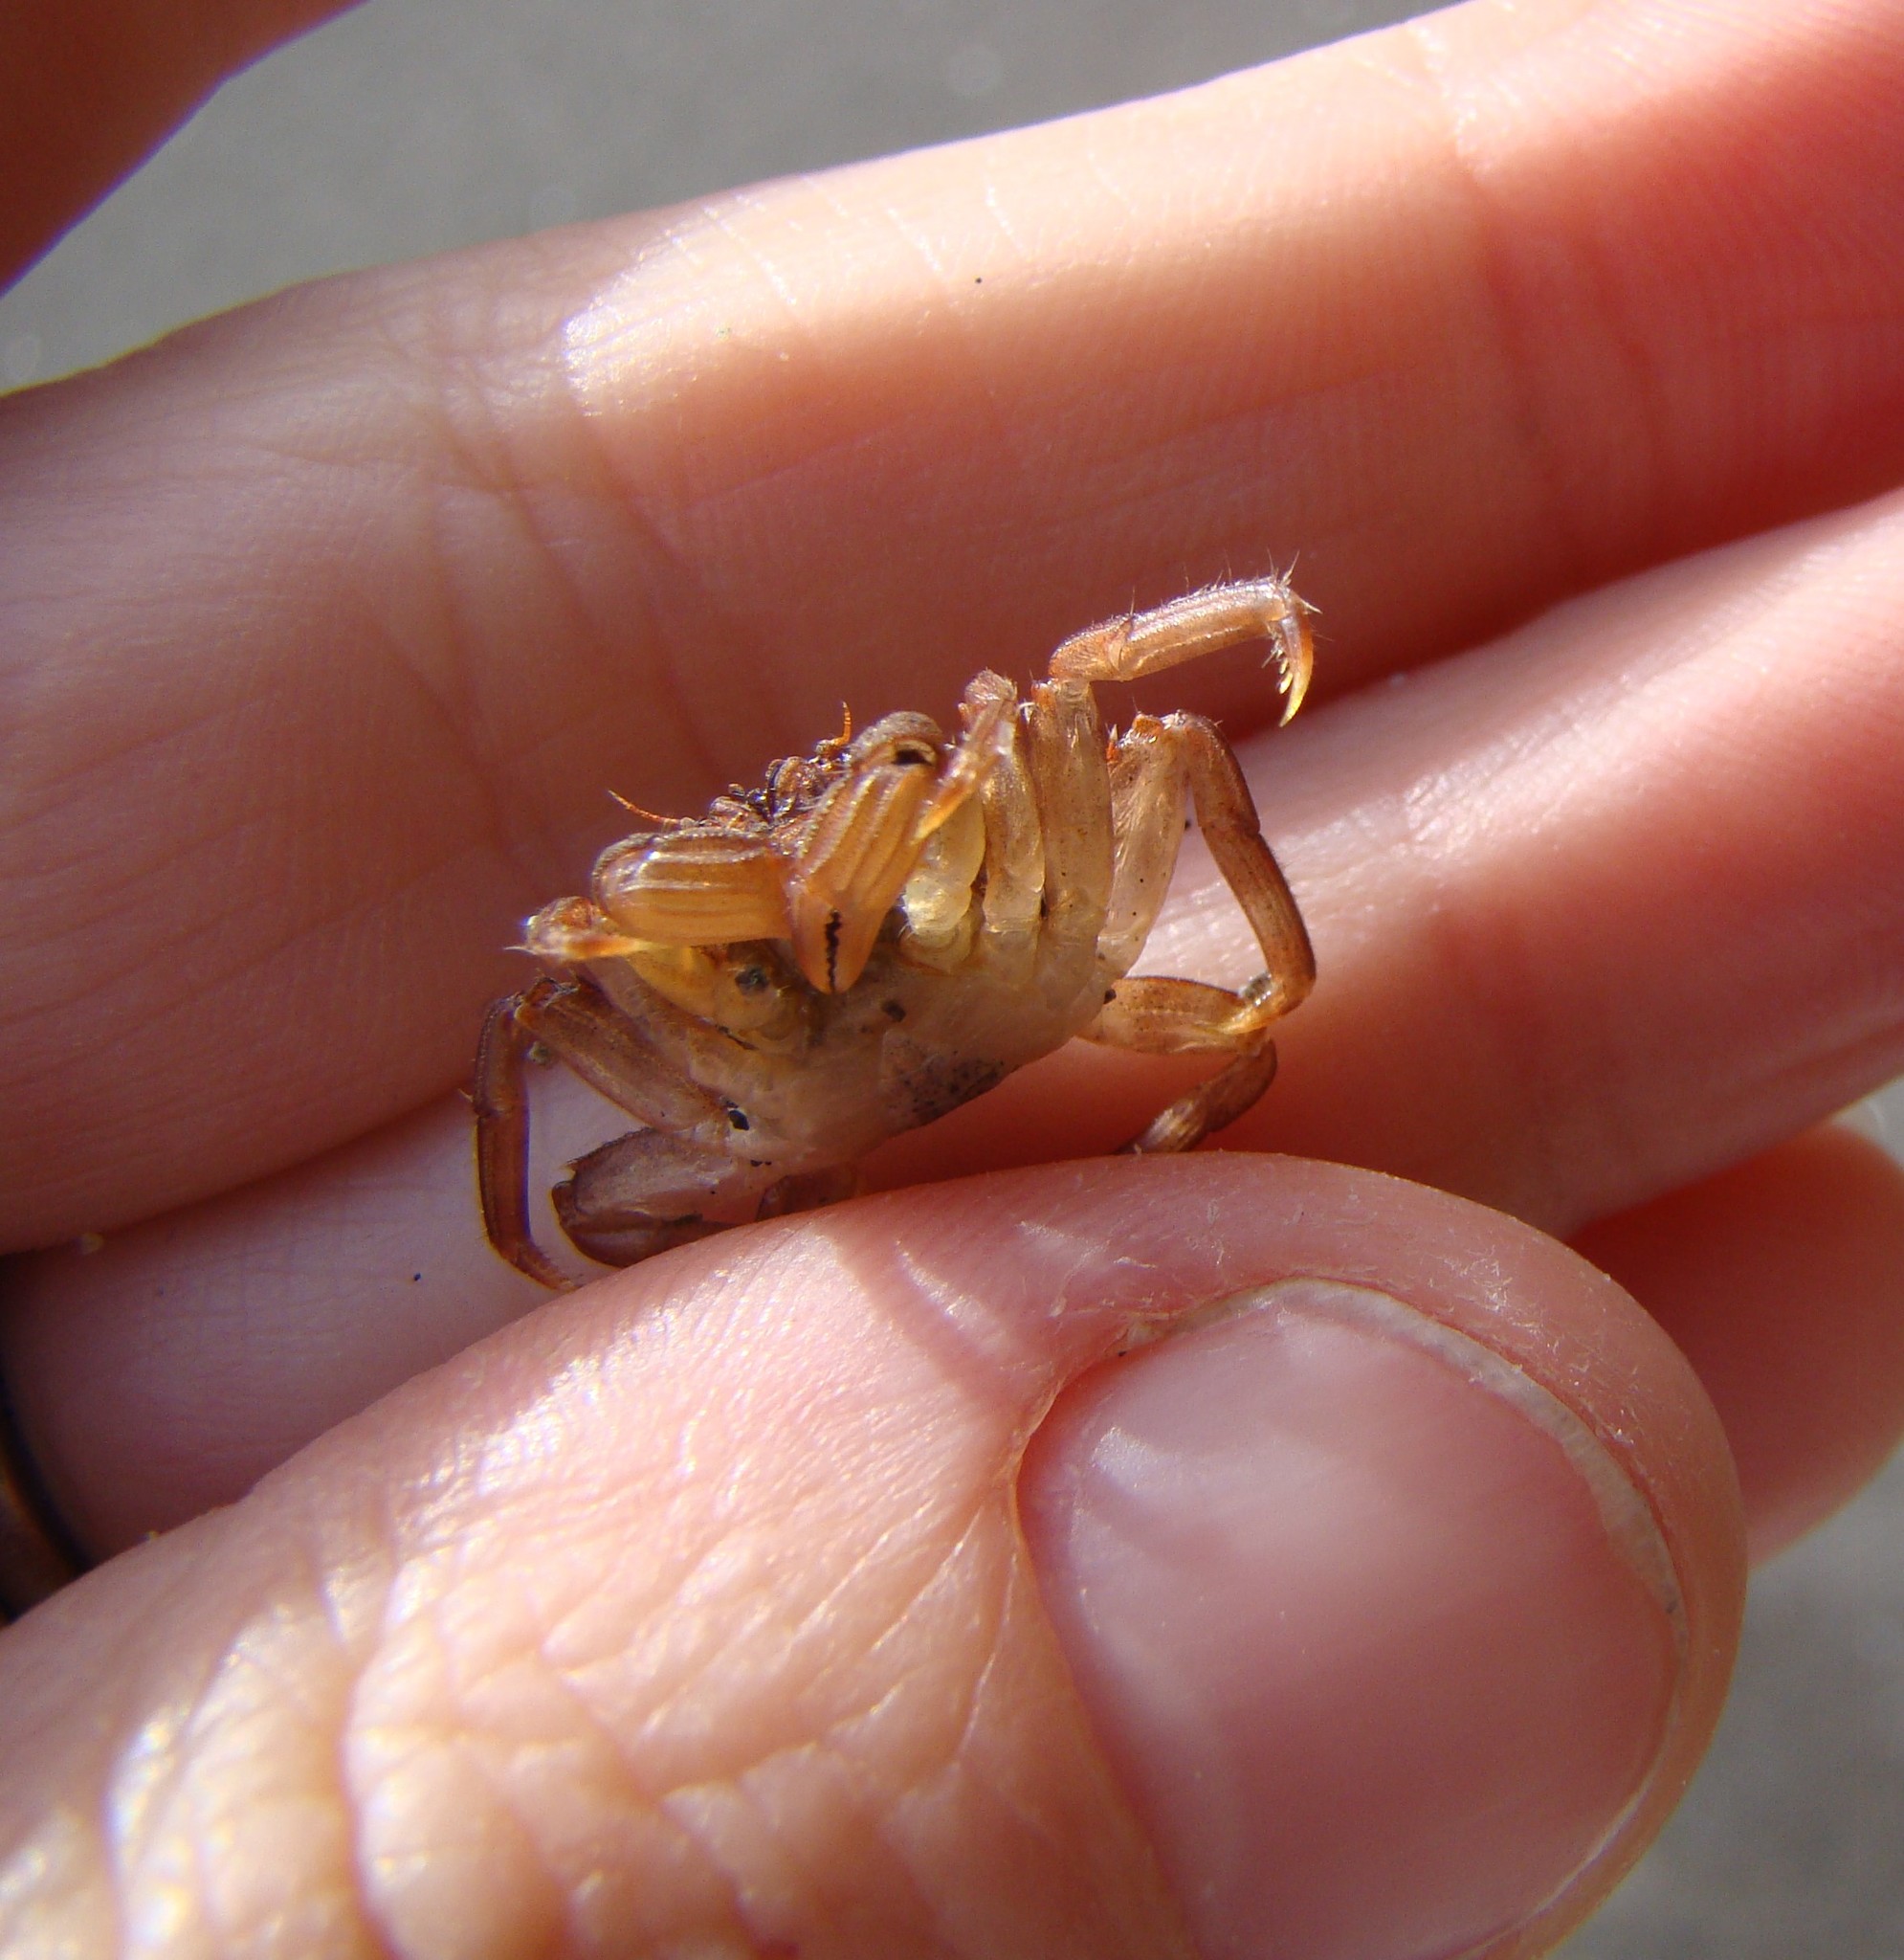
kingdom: Animalia
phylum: Arthropoda
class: Malacostraca
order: Decapoda
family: Plagusiidae
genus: Guinusia
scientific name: Guinusia chabrus
